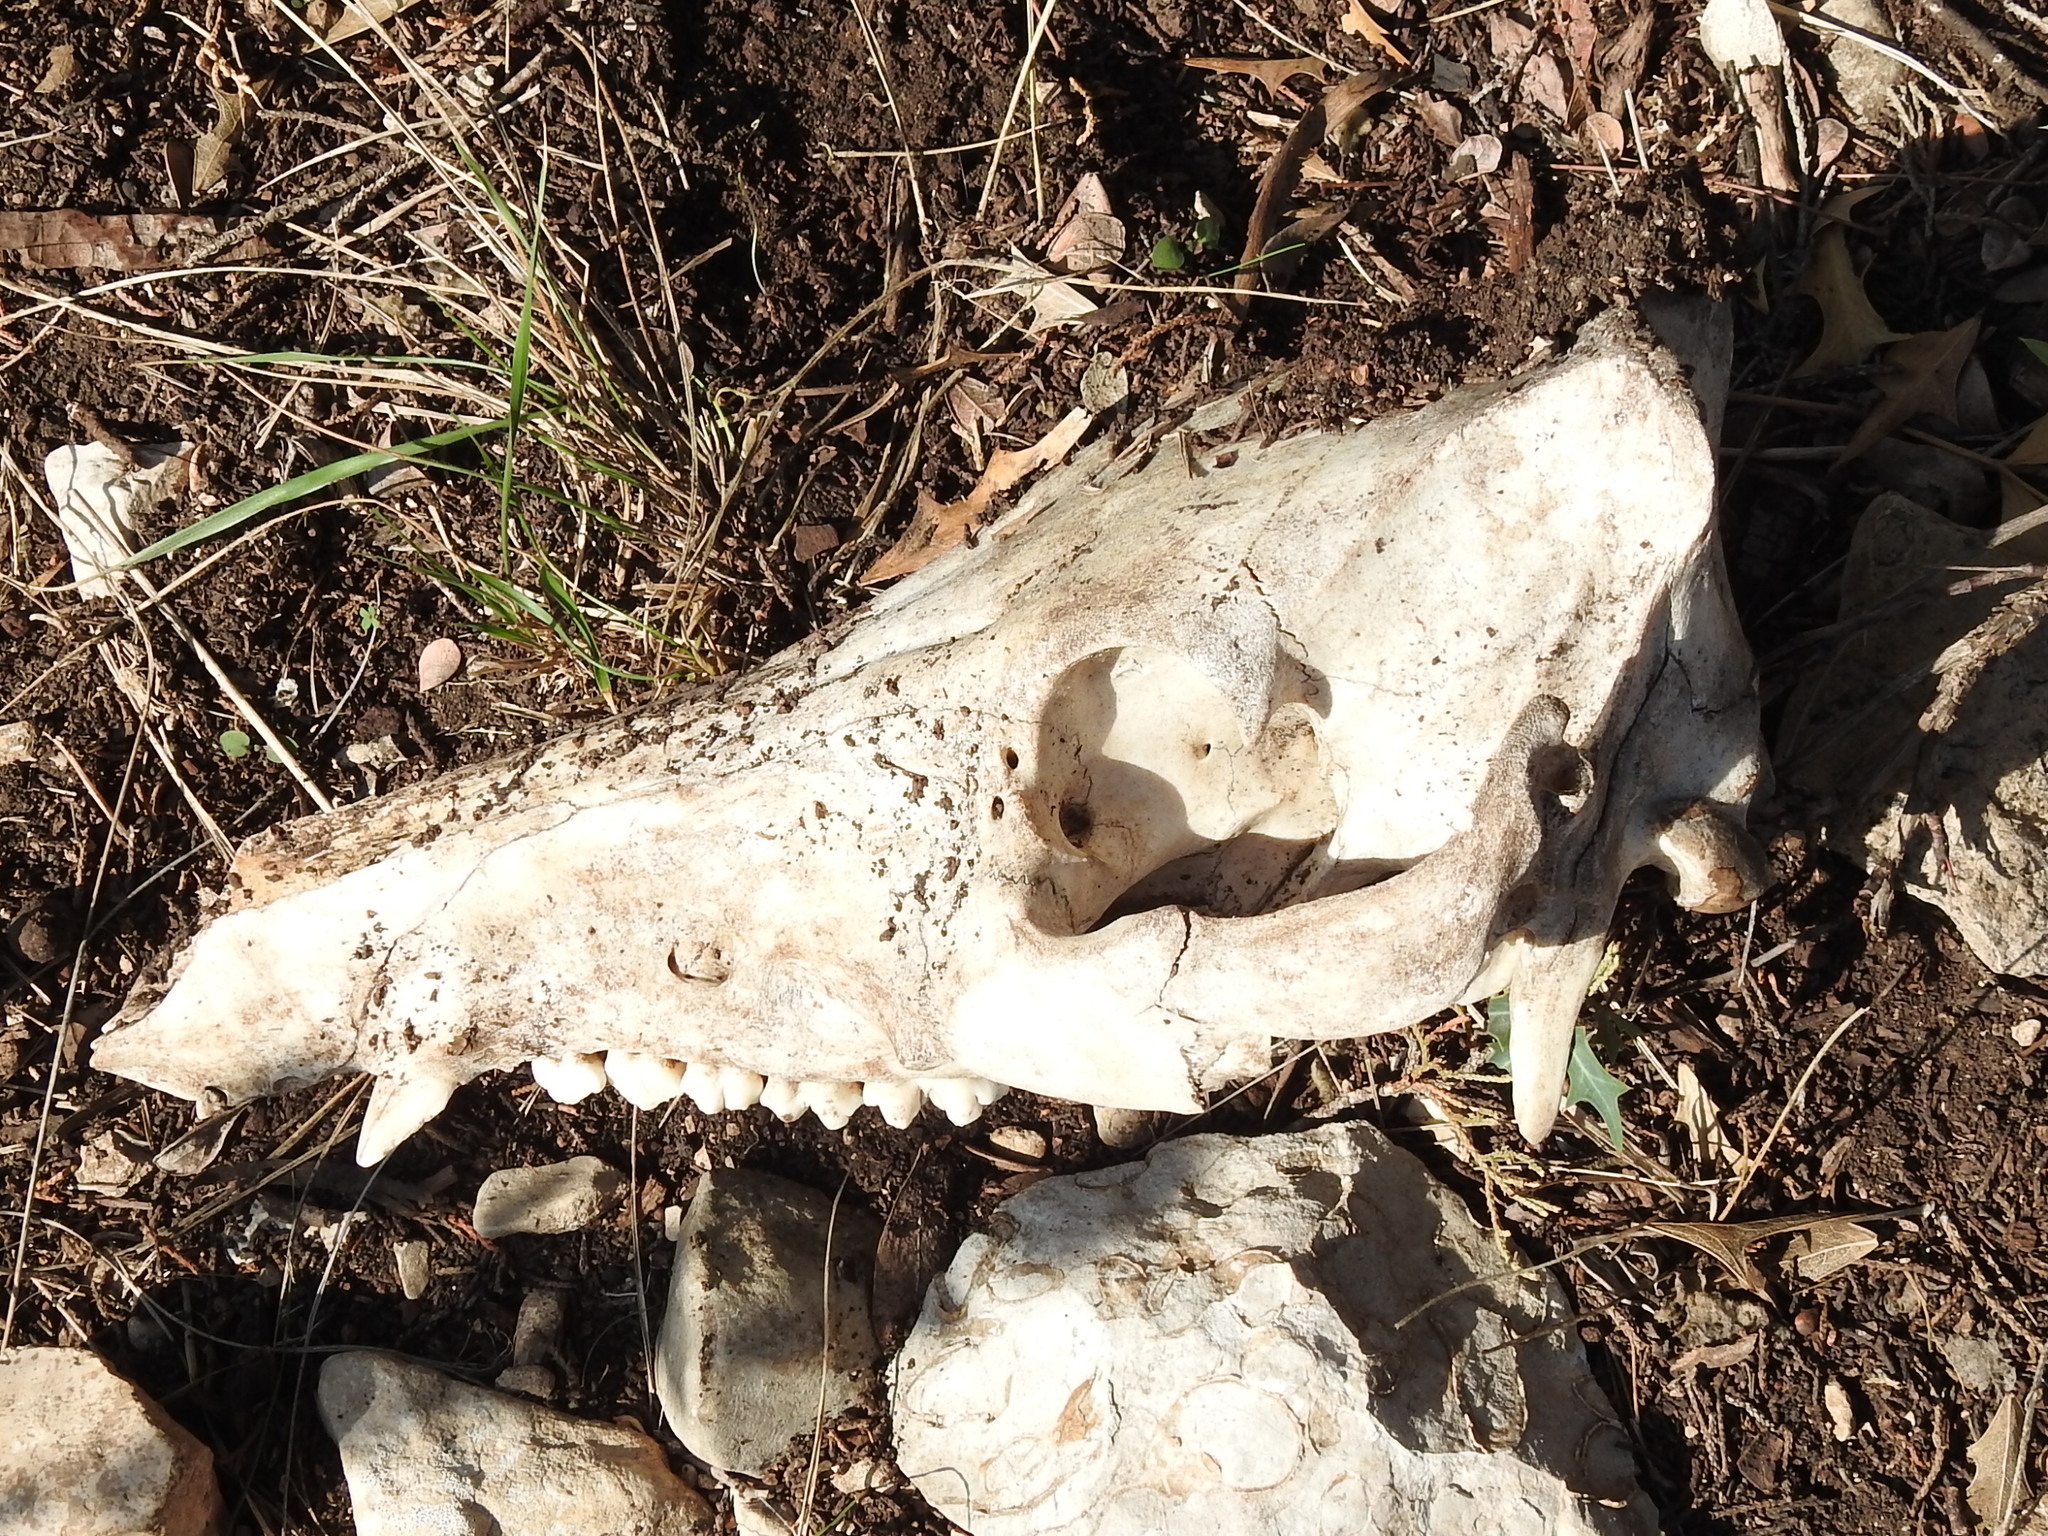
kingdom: Animalia
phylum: Chordata
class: Mammalia
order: Artiodactyla
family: Suidae
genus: Sus
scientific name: Sus scrofa
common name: Wild boar
